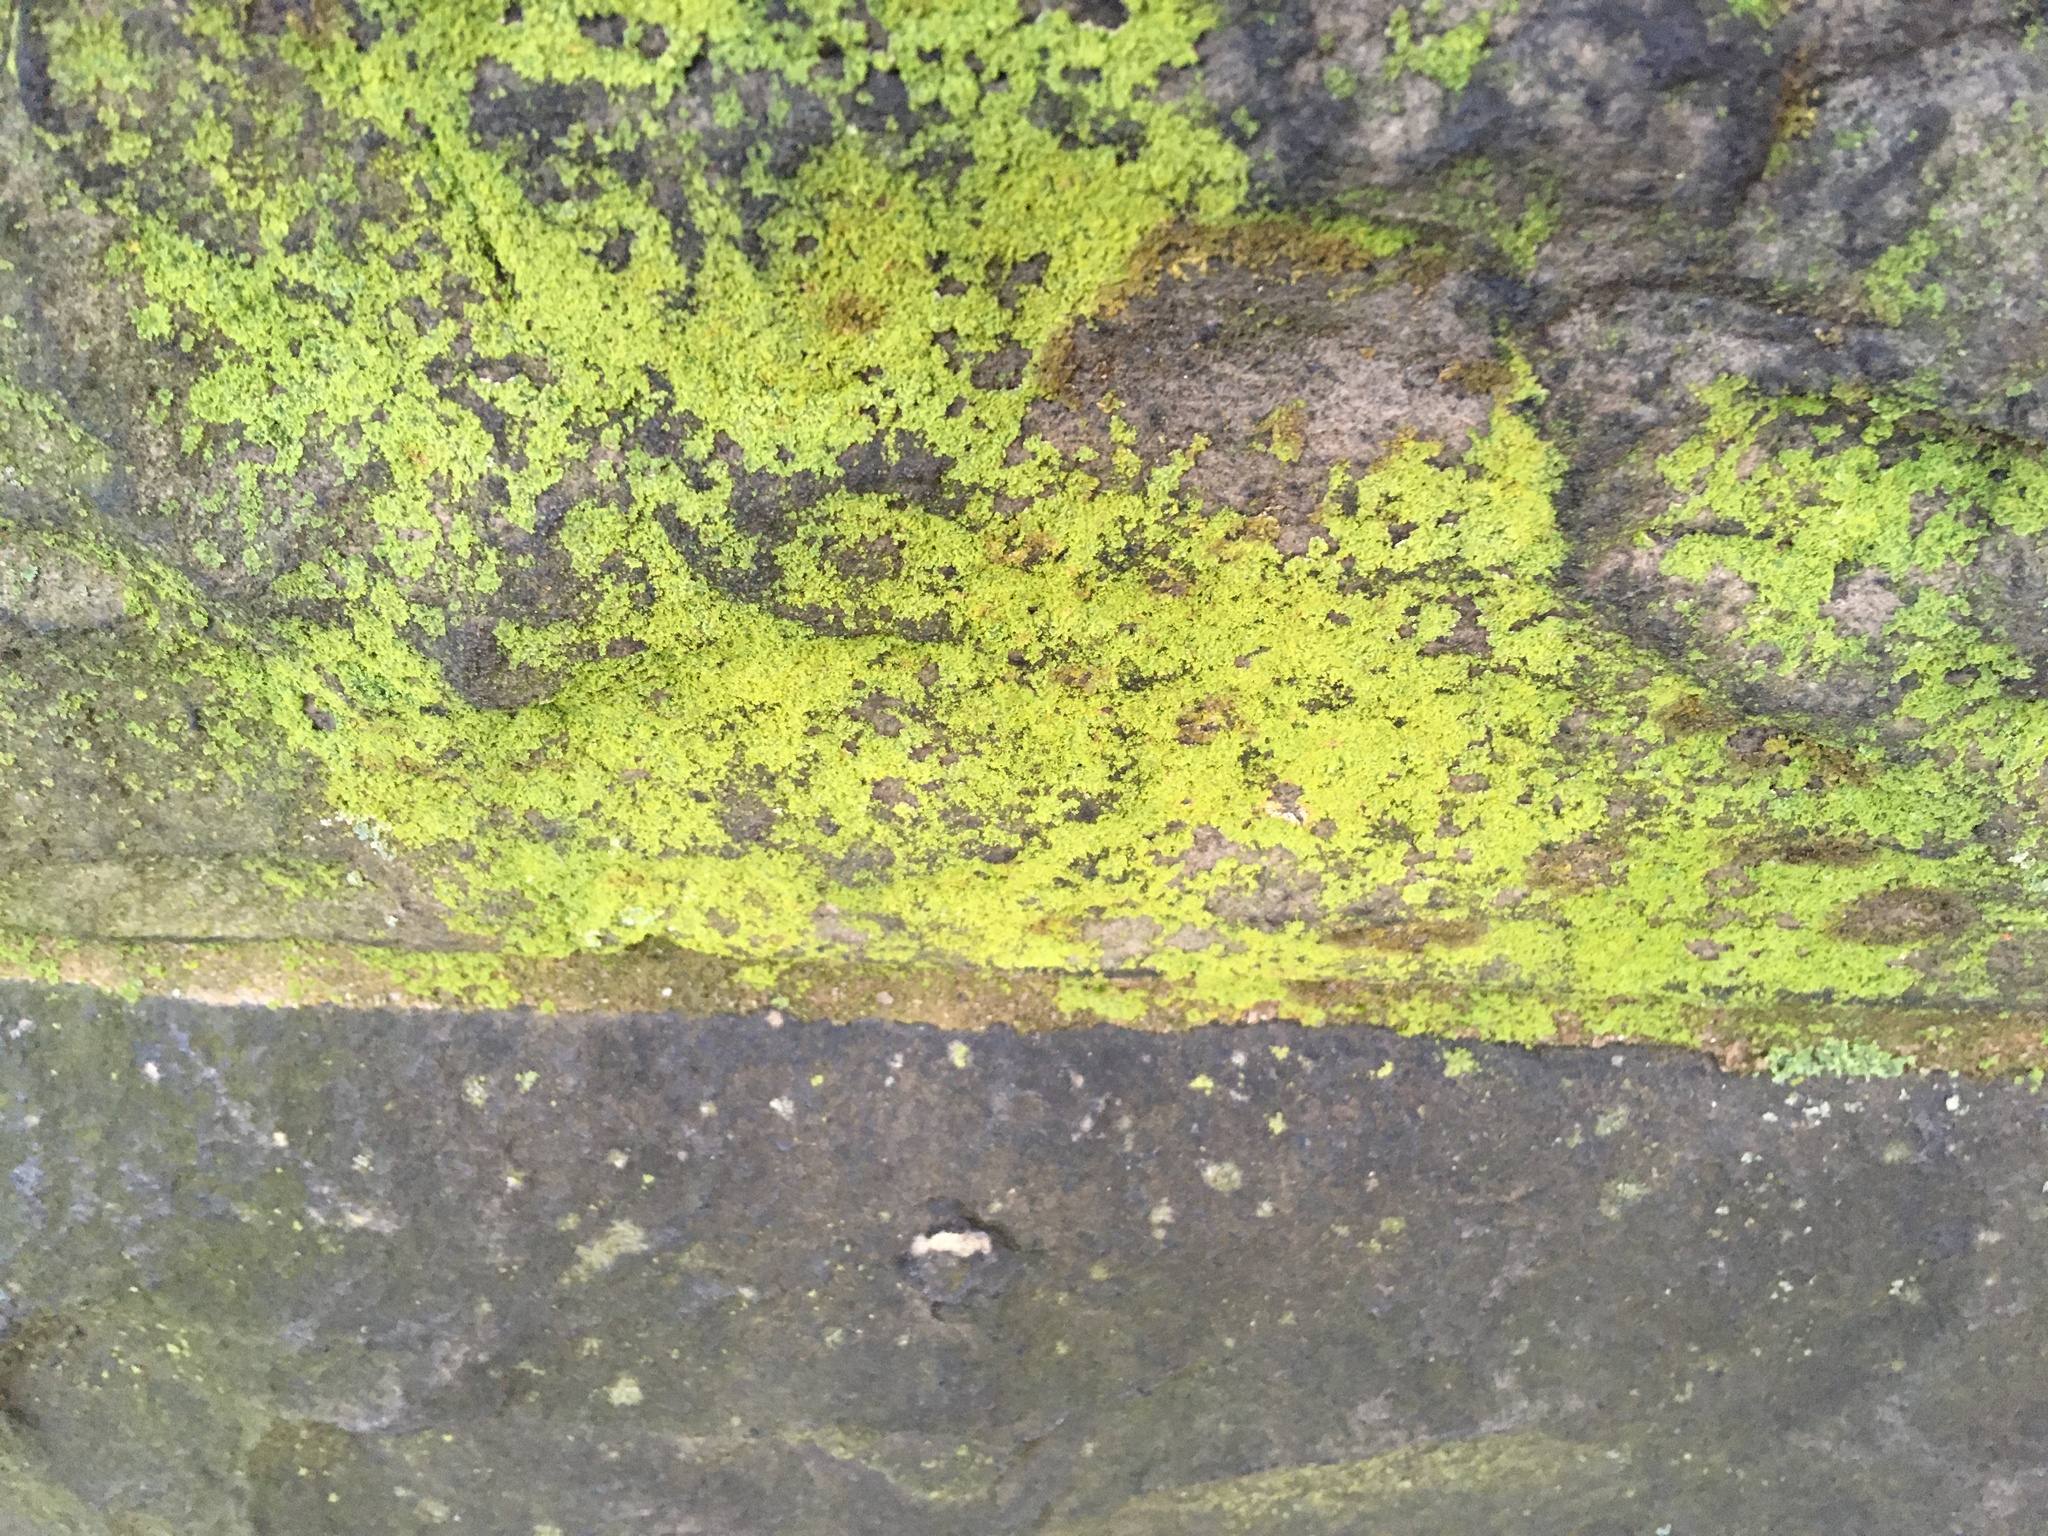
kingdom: Fungi
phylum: Ascomycota
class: Candelariomycetes
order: Candelariales
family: Candelariaceae
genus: Candelaria
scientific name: Candelaria concolor
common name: Candleflame lichen
